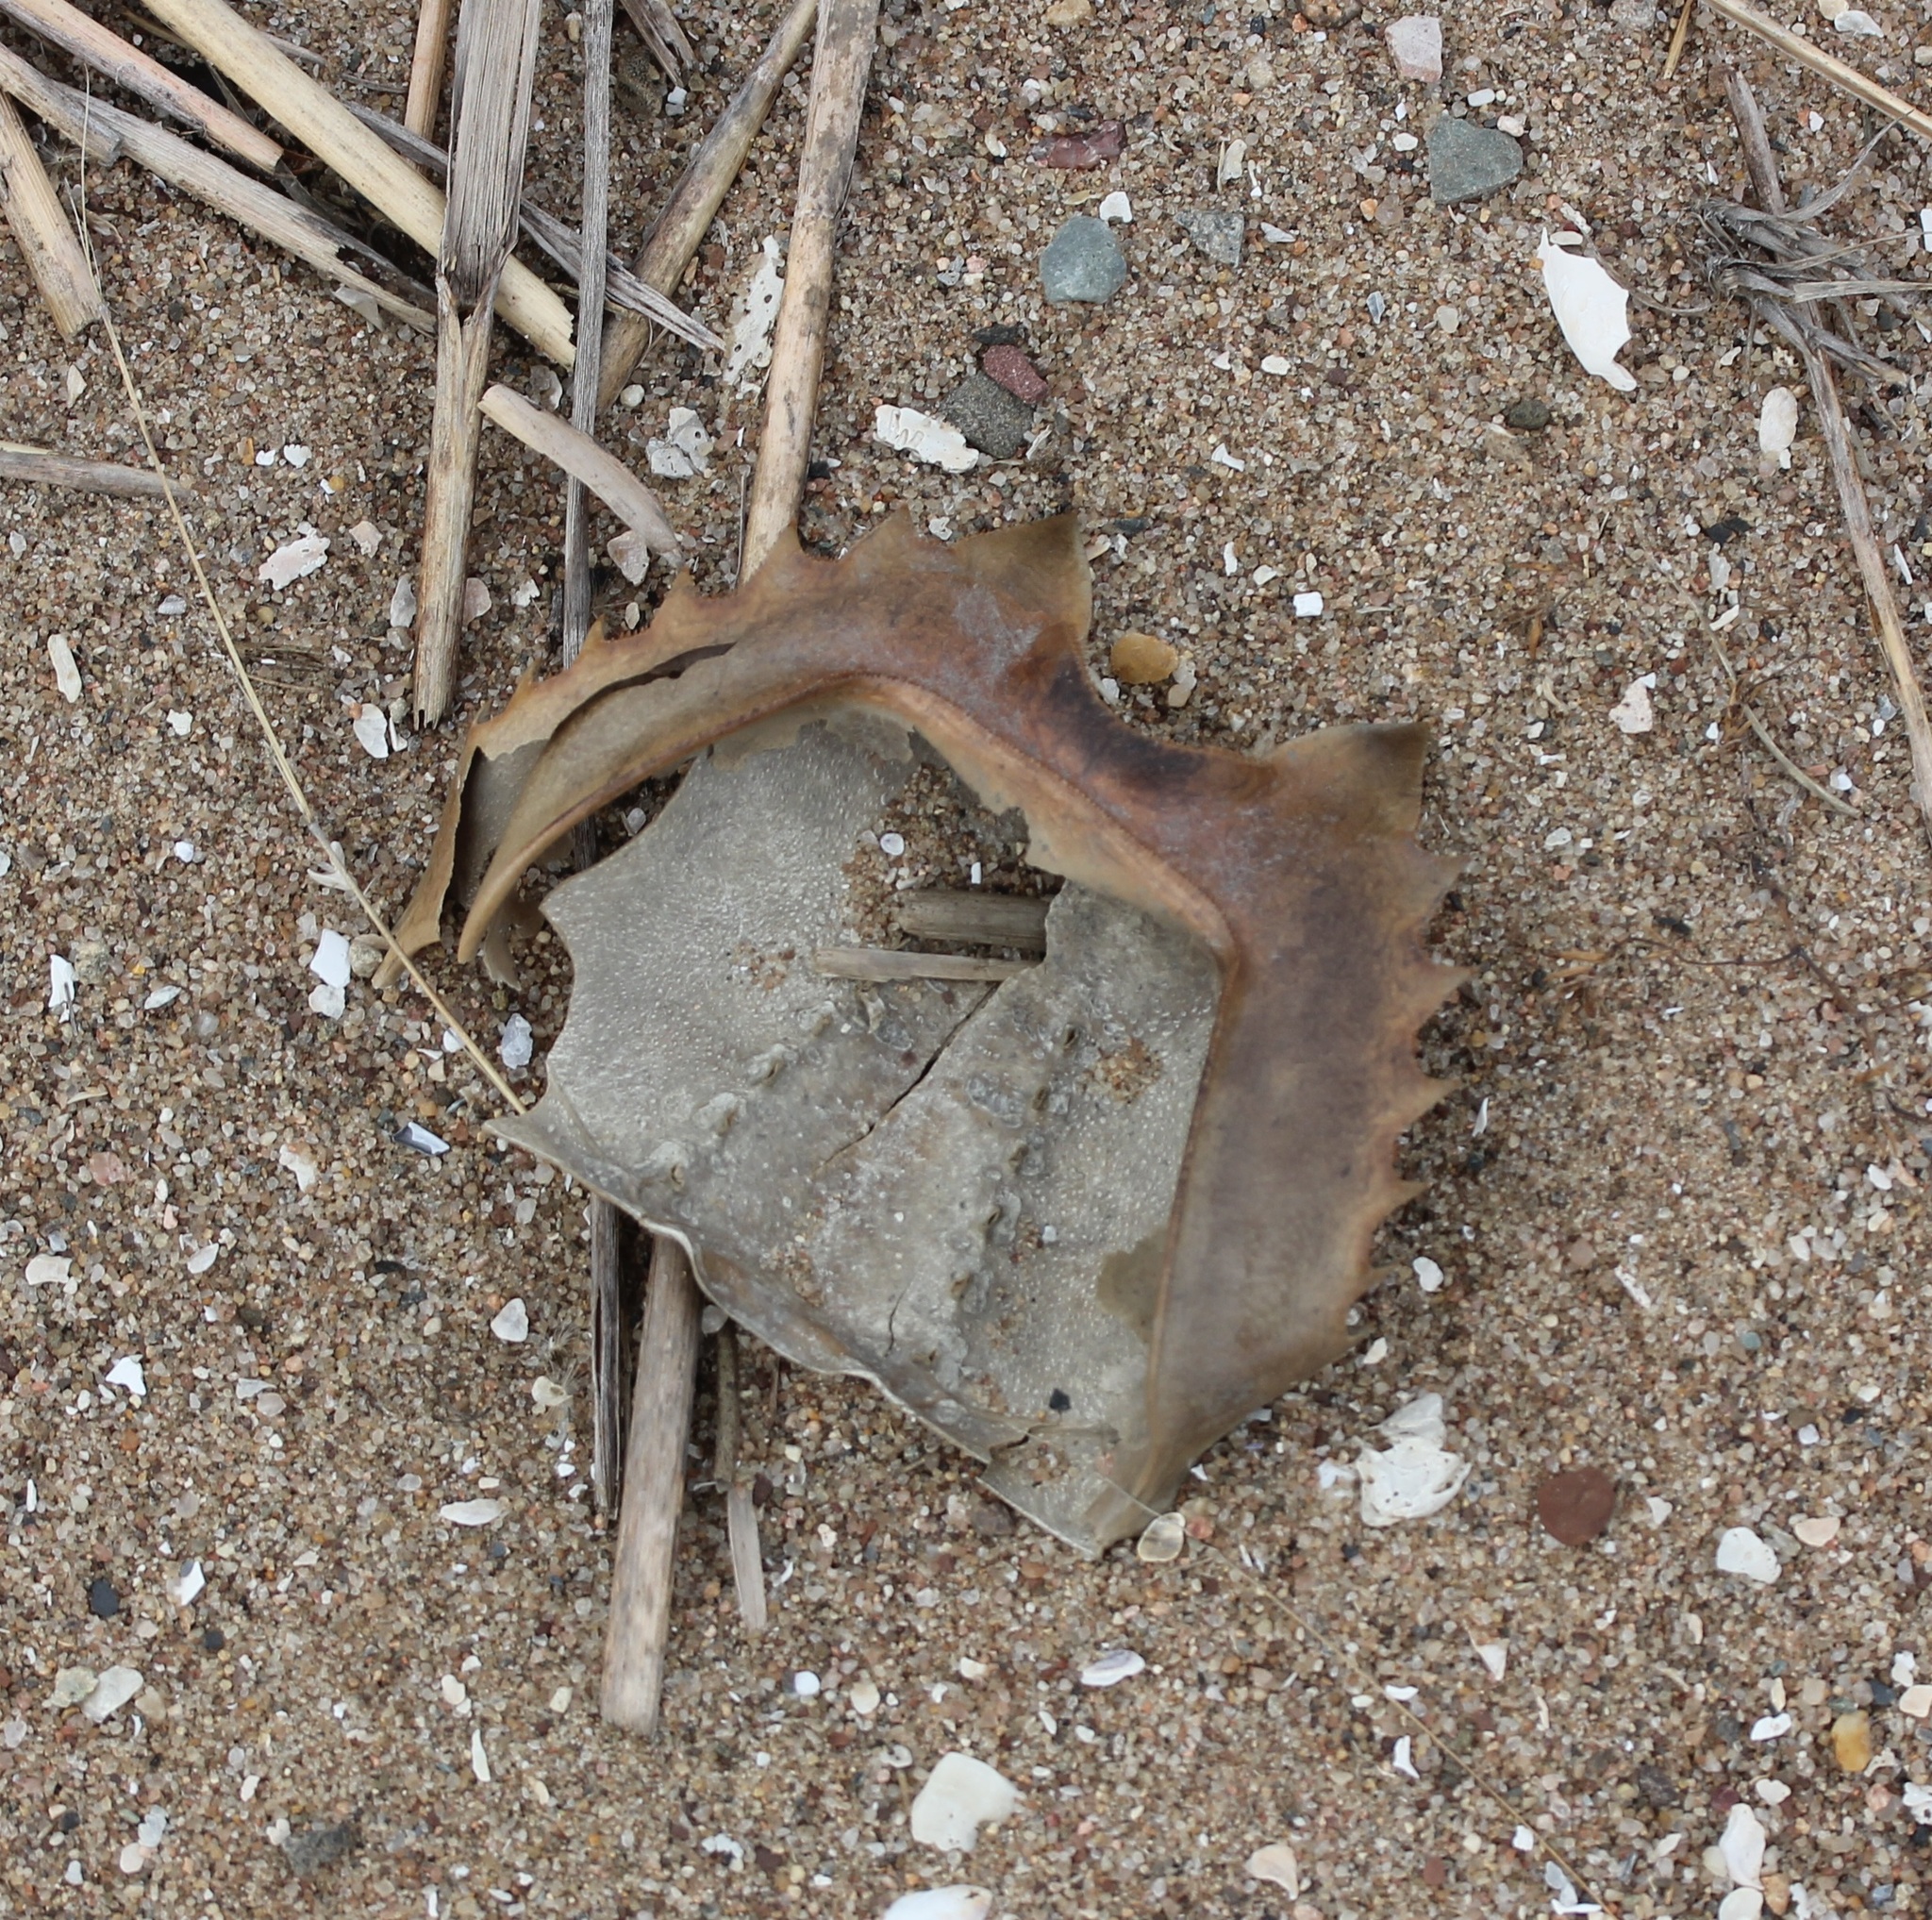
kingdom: Animalia
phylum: Arthropoda
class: Merostomata
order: Xiphosurida
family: Limulidae
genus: Limulus
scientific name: Limulus polyphemus
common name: Horseshoe crab
